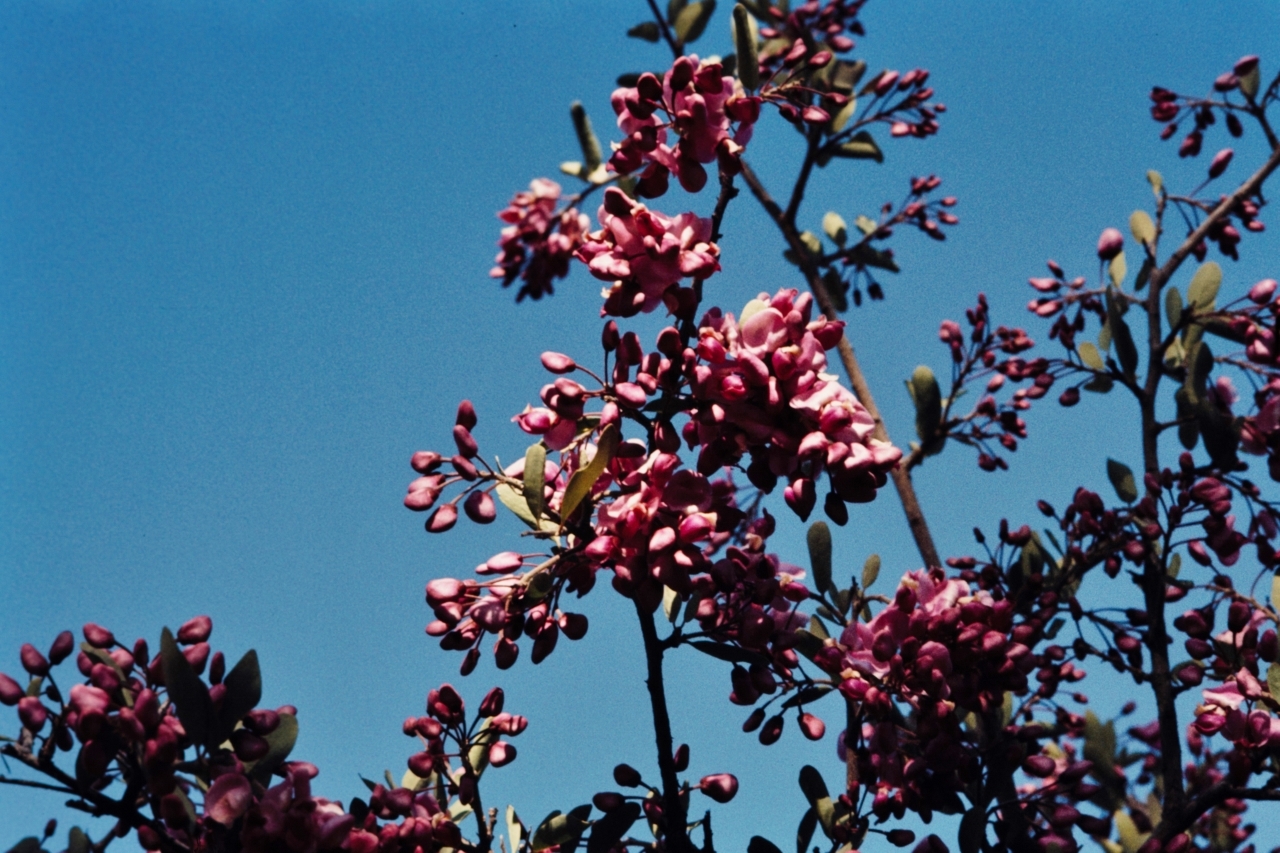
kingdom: Plantae
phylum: Tracheophyta
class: Magnoliopsida
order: Fabales
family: Polygalaceae
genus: Securidaca
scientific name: Securidaca longepedunculata
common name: Violet tree
